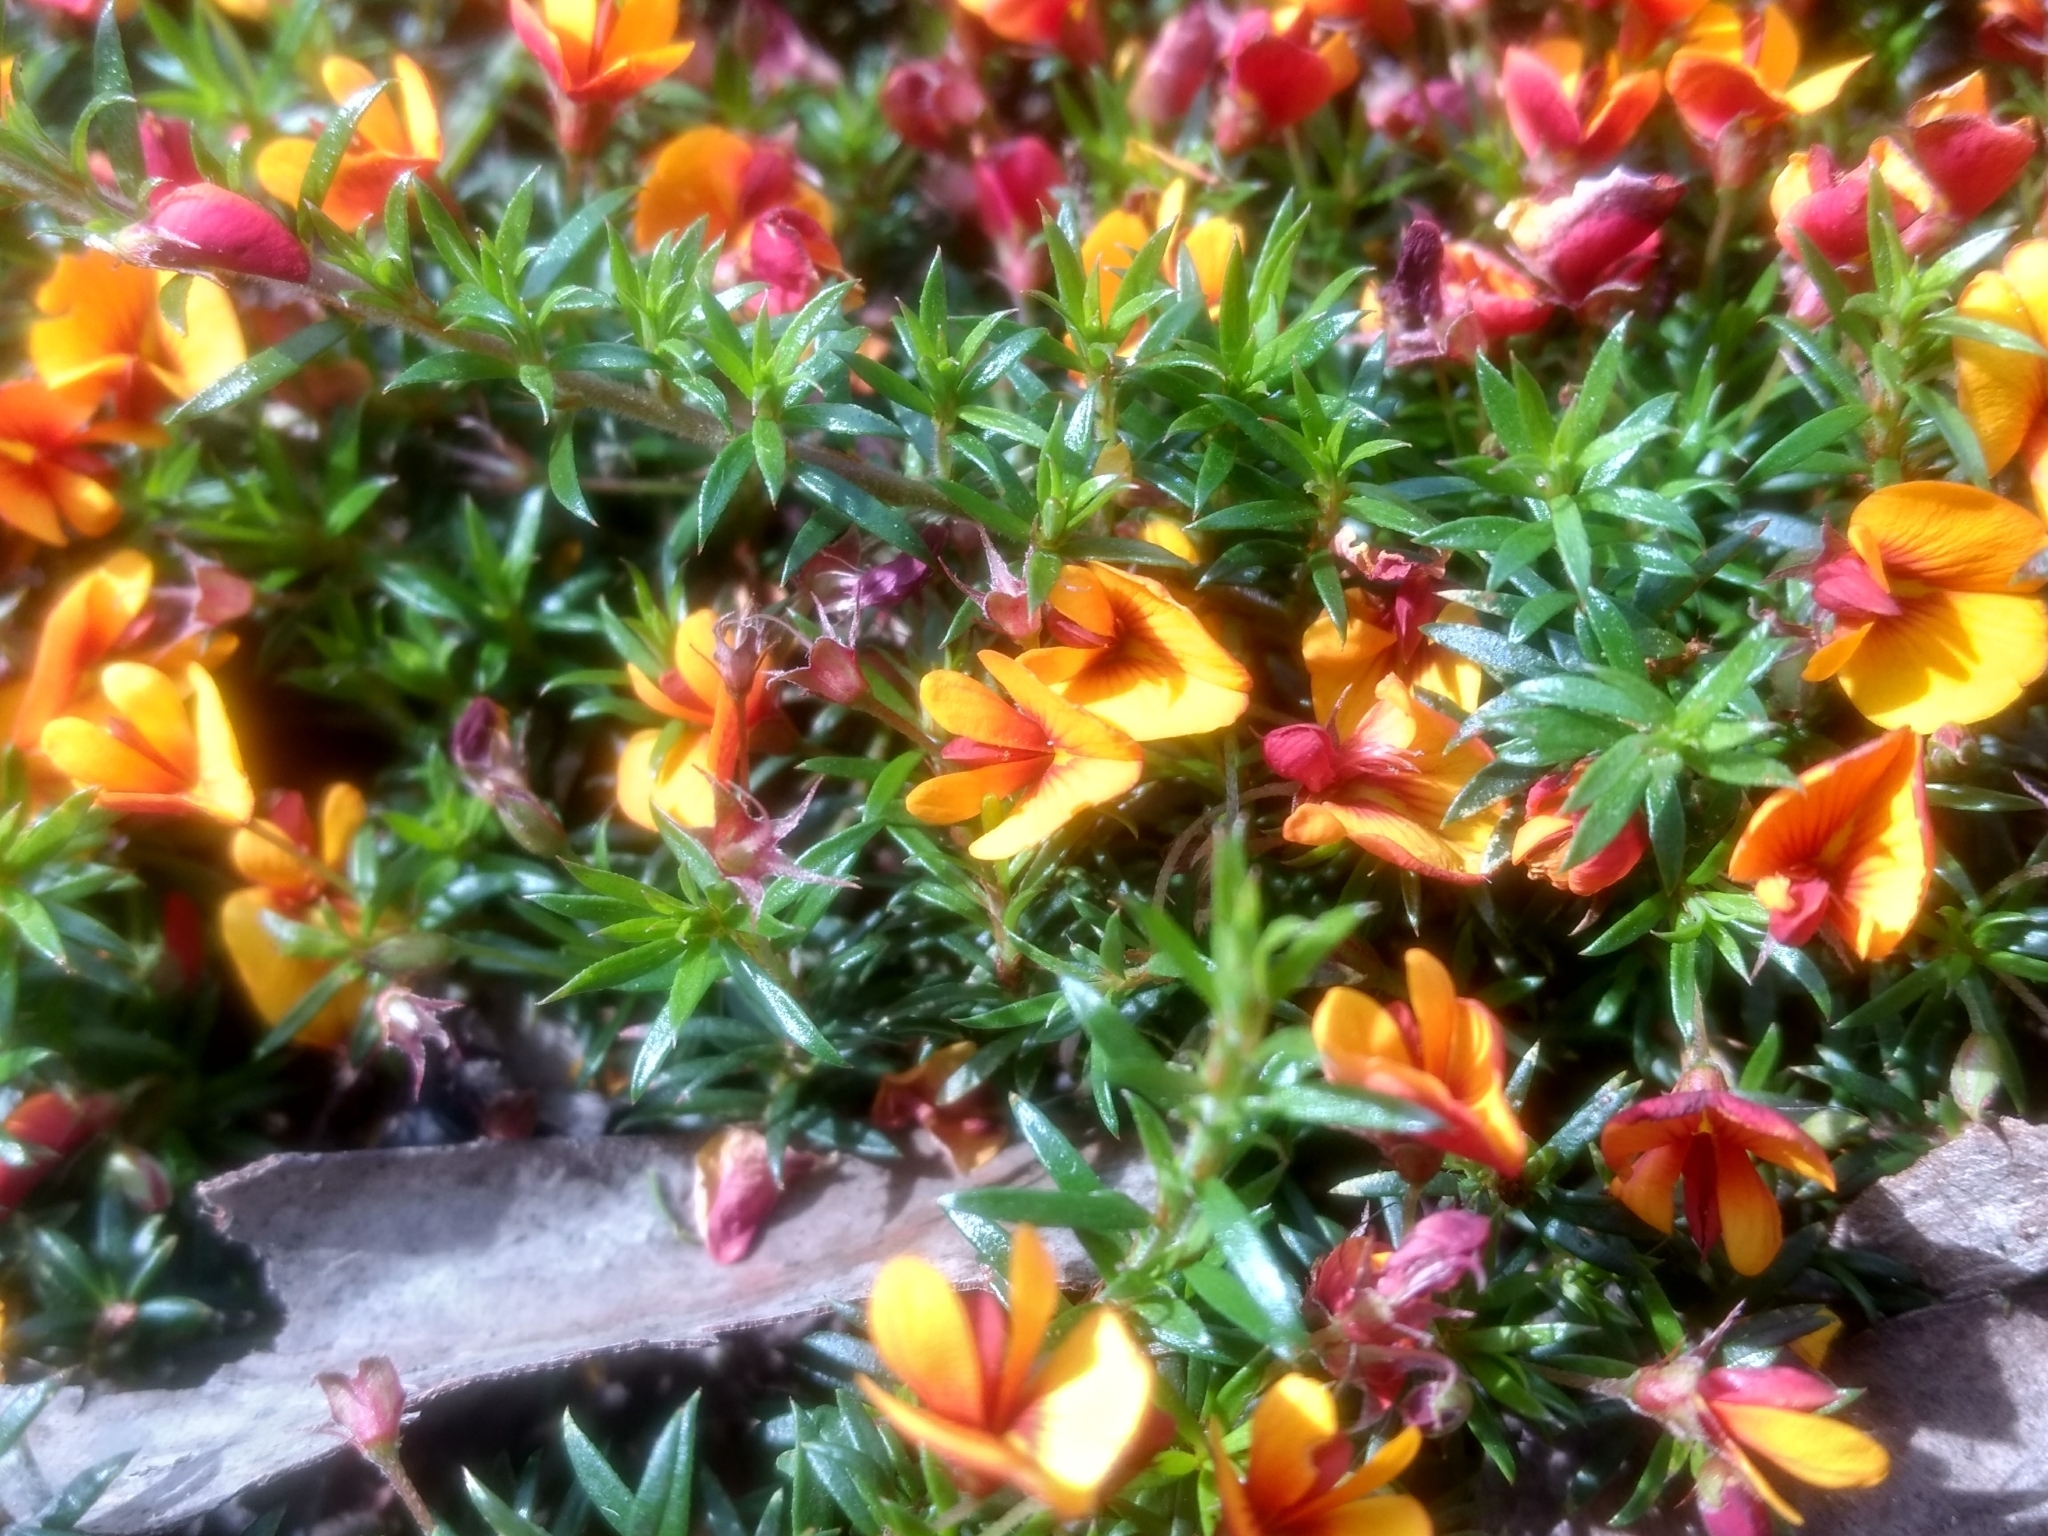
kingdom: Plantae
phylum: Tracheophyta
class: Magnoliopsida
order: Fabales
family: Fabaceae
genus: Pultenaea
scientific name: Pultenaea pedunculata
